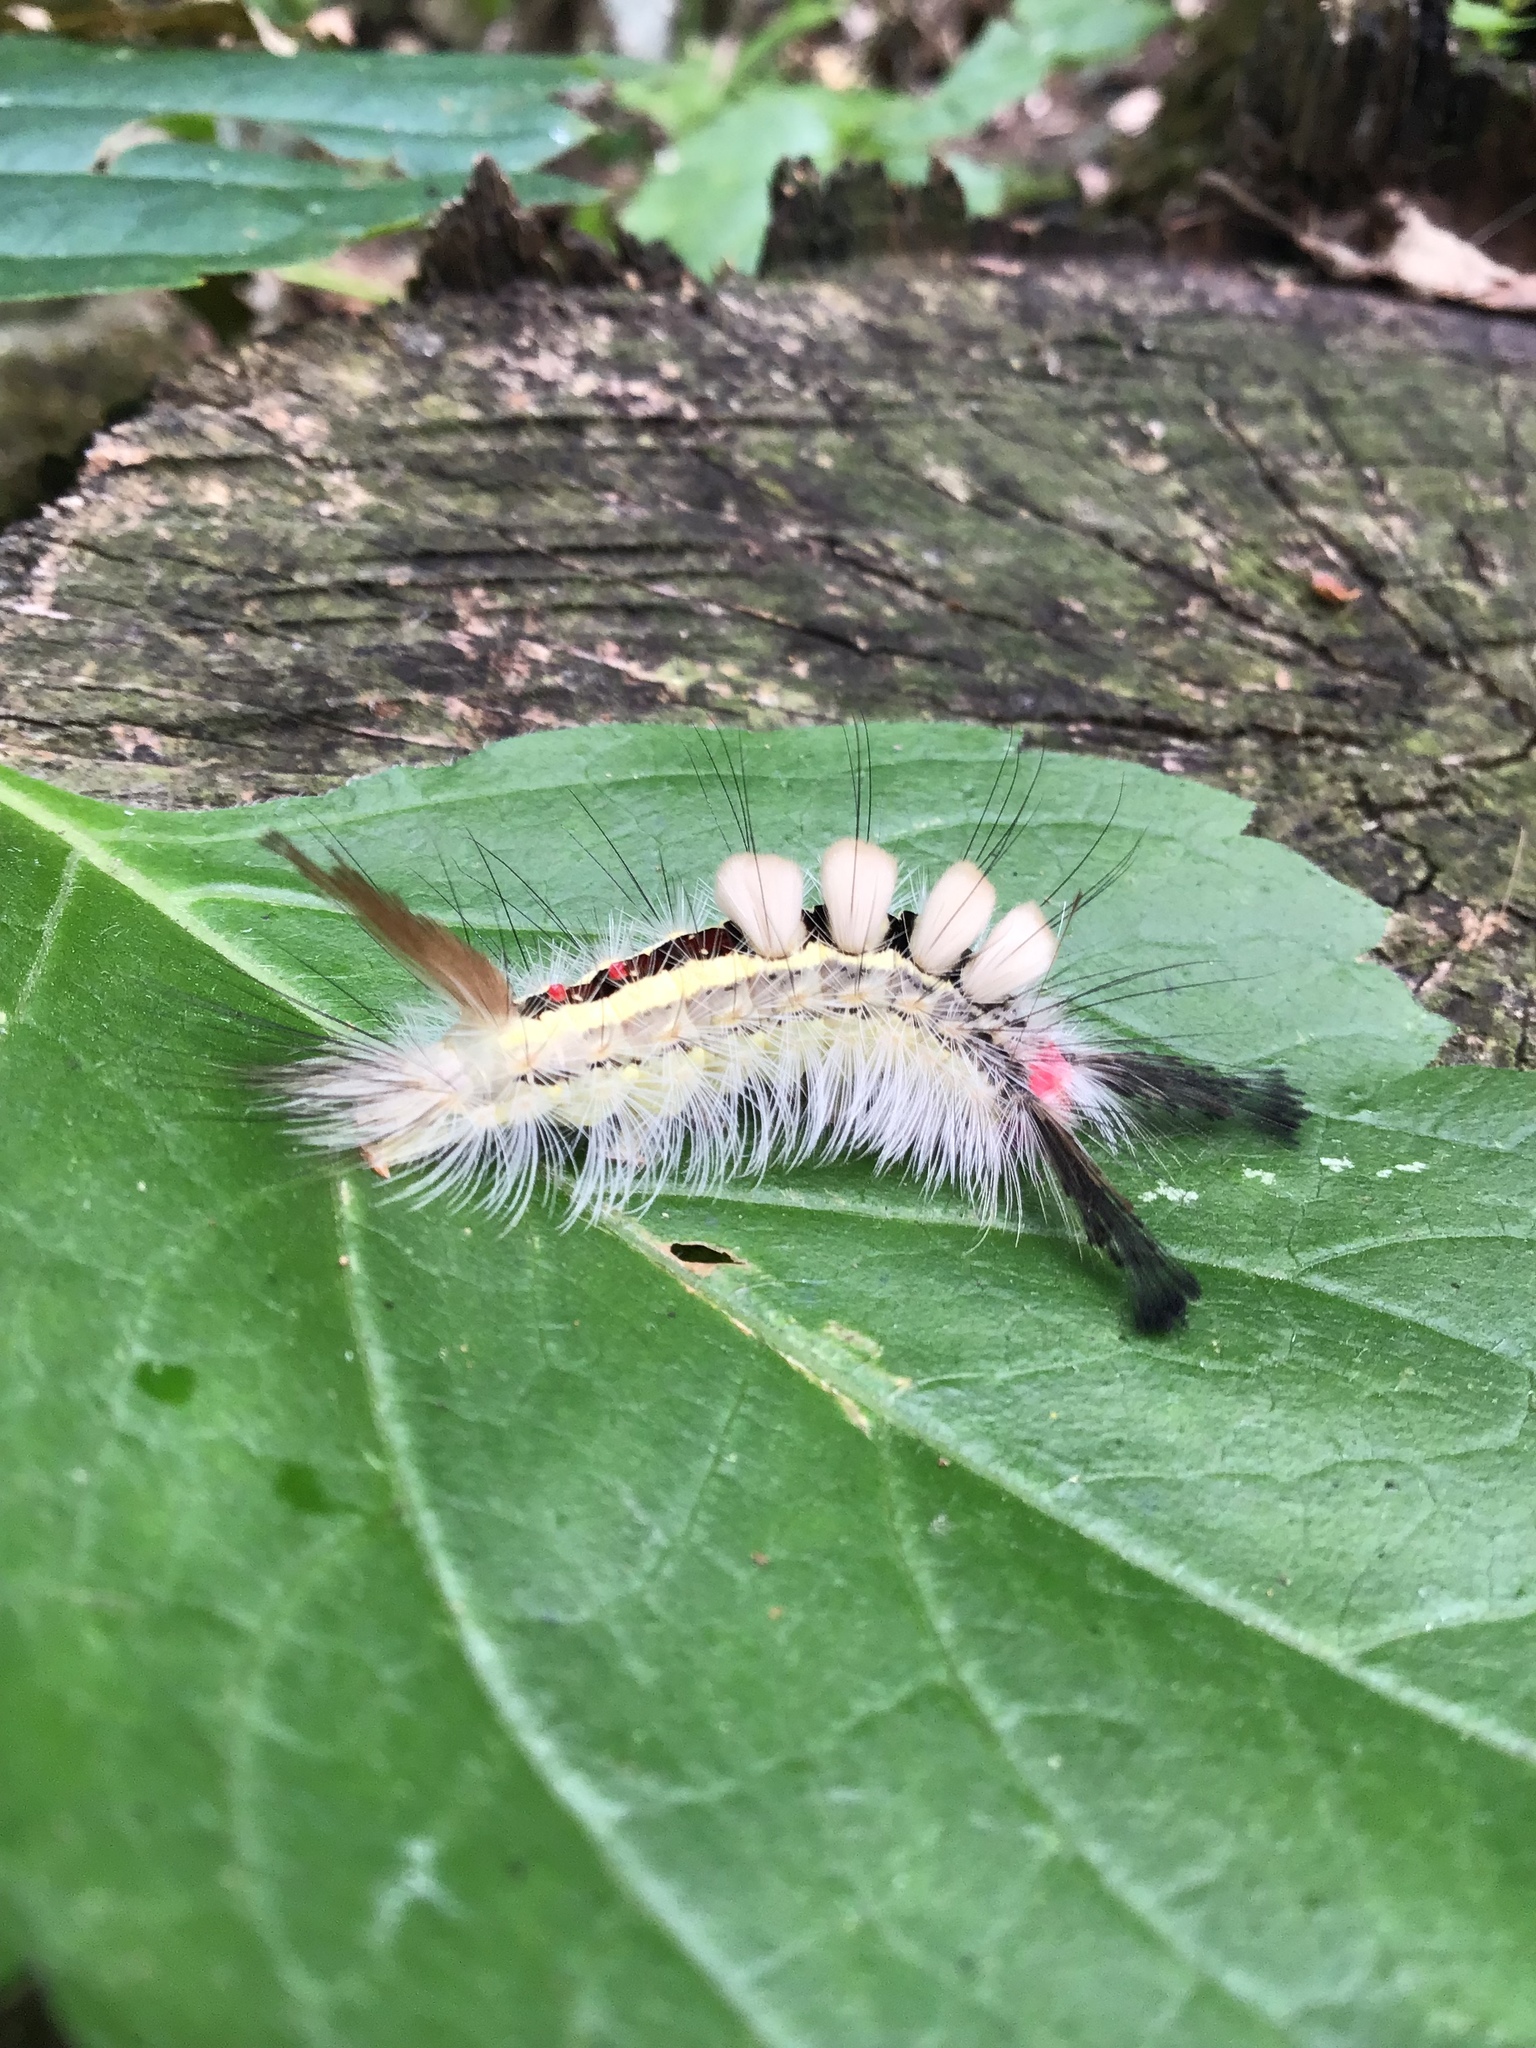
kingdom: Animalia
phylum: Arthropoda
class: Insecta
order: Lepidoptera
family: Erebidae
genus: Orgyia
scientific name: Orgyia leucostigma
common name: White-marked tussock moth
